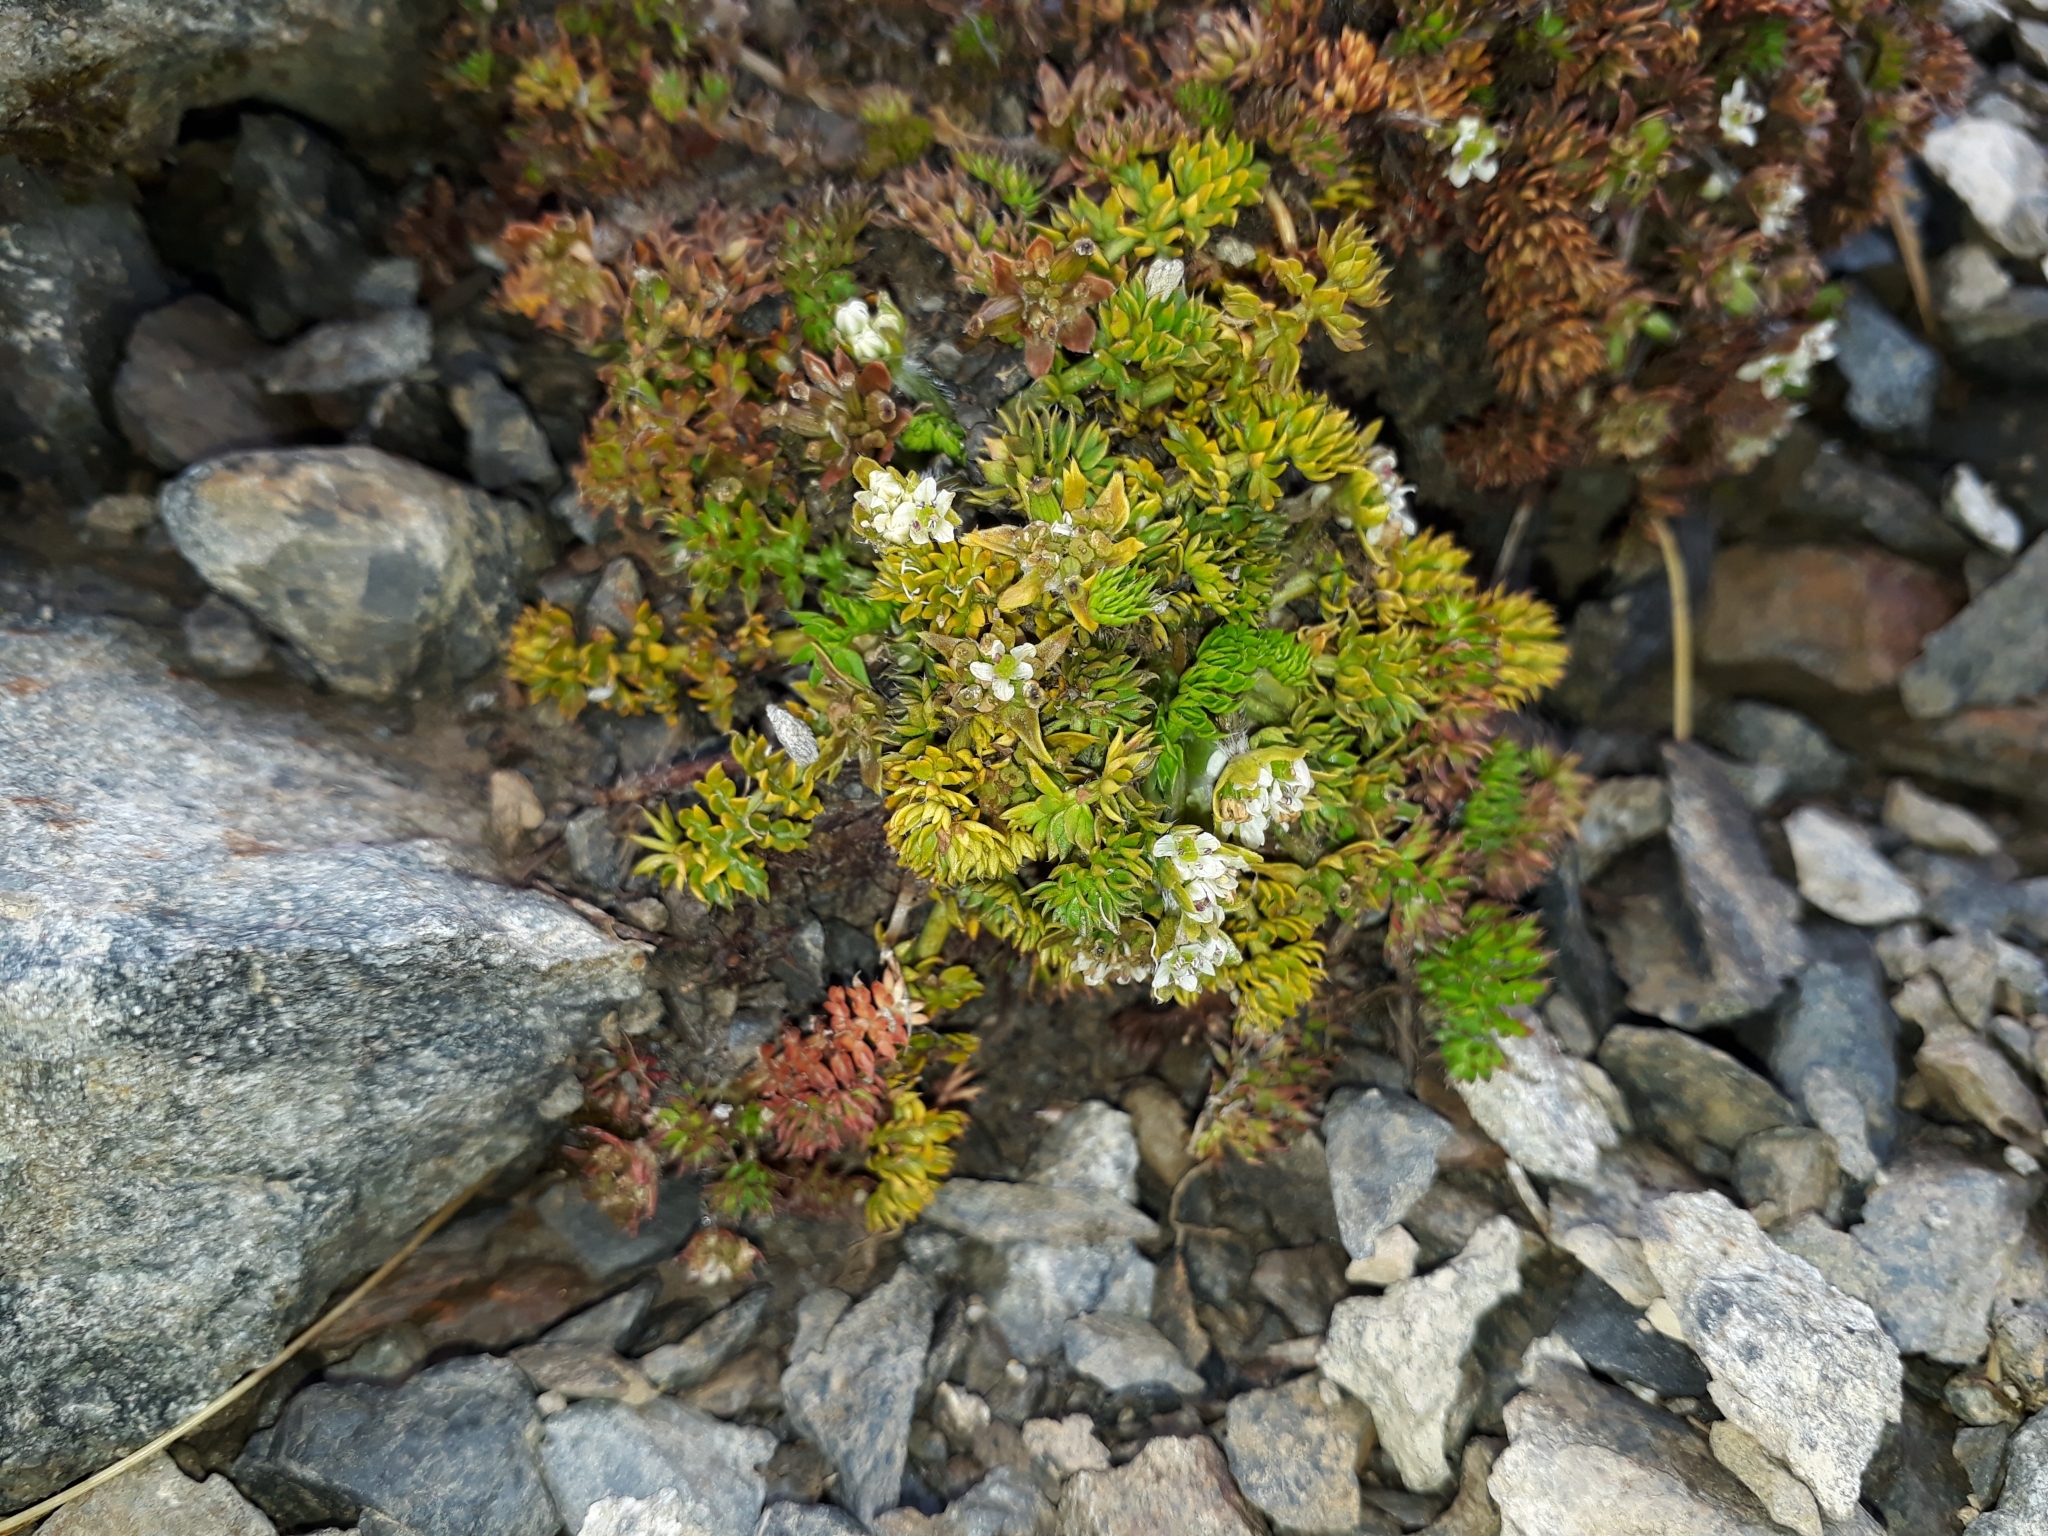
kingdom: Plantae
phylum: Tracheophyta
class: Magnoliopsida
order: Apiales
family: Apiaceae
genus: Chaerophyllum
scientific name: Chaerophyllum colensoi
